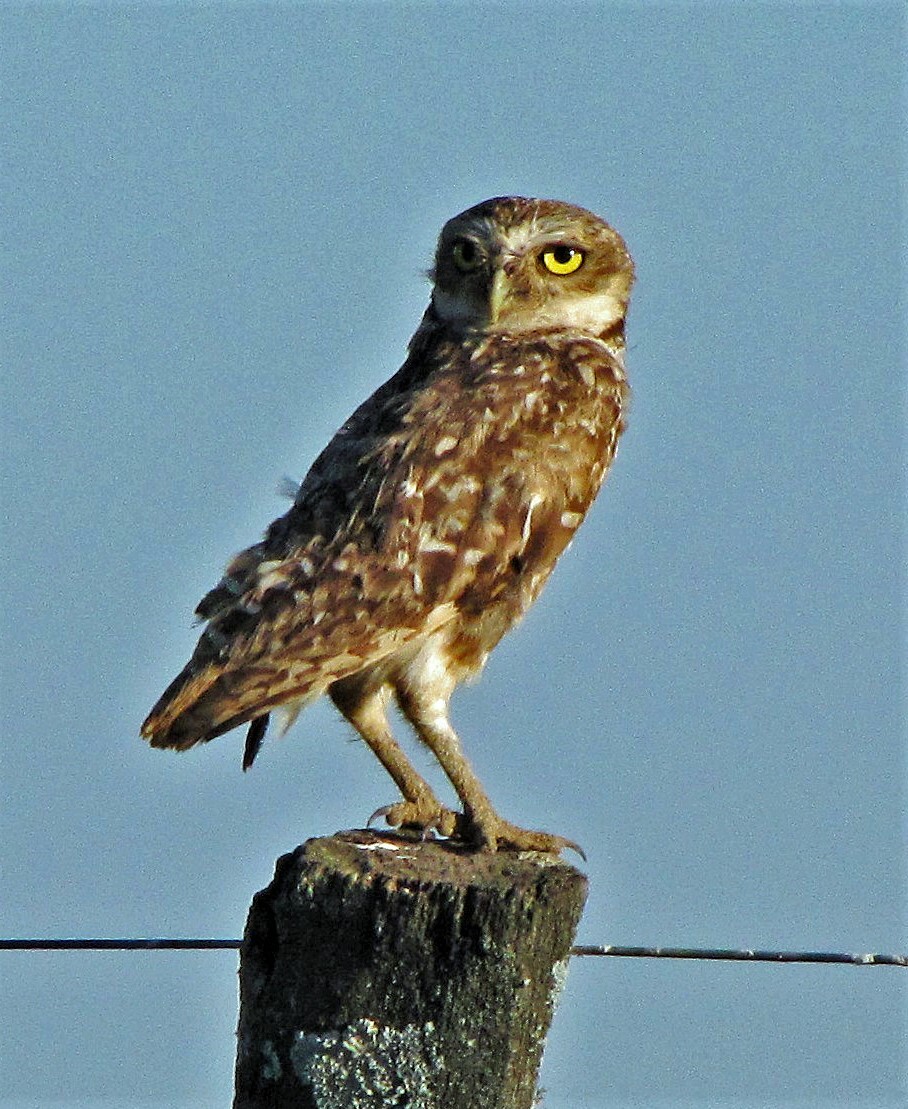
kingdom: Animalia
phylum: Chordata
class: Aves
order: Strigiformes
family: Strigidae
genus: Athene
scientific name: Athene cunicularia
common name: Burrowing owl
